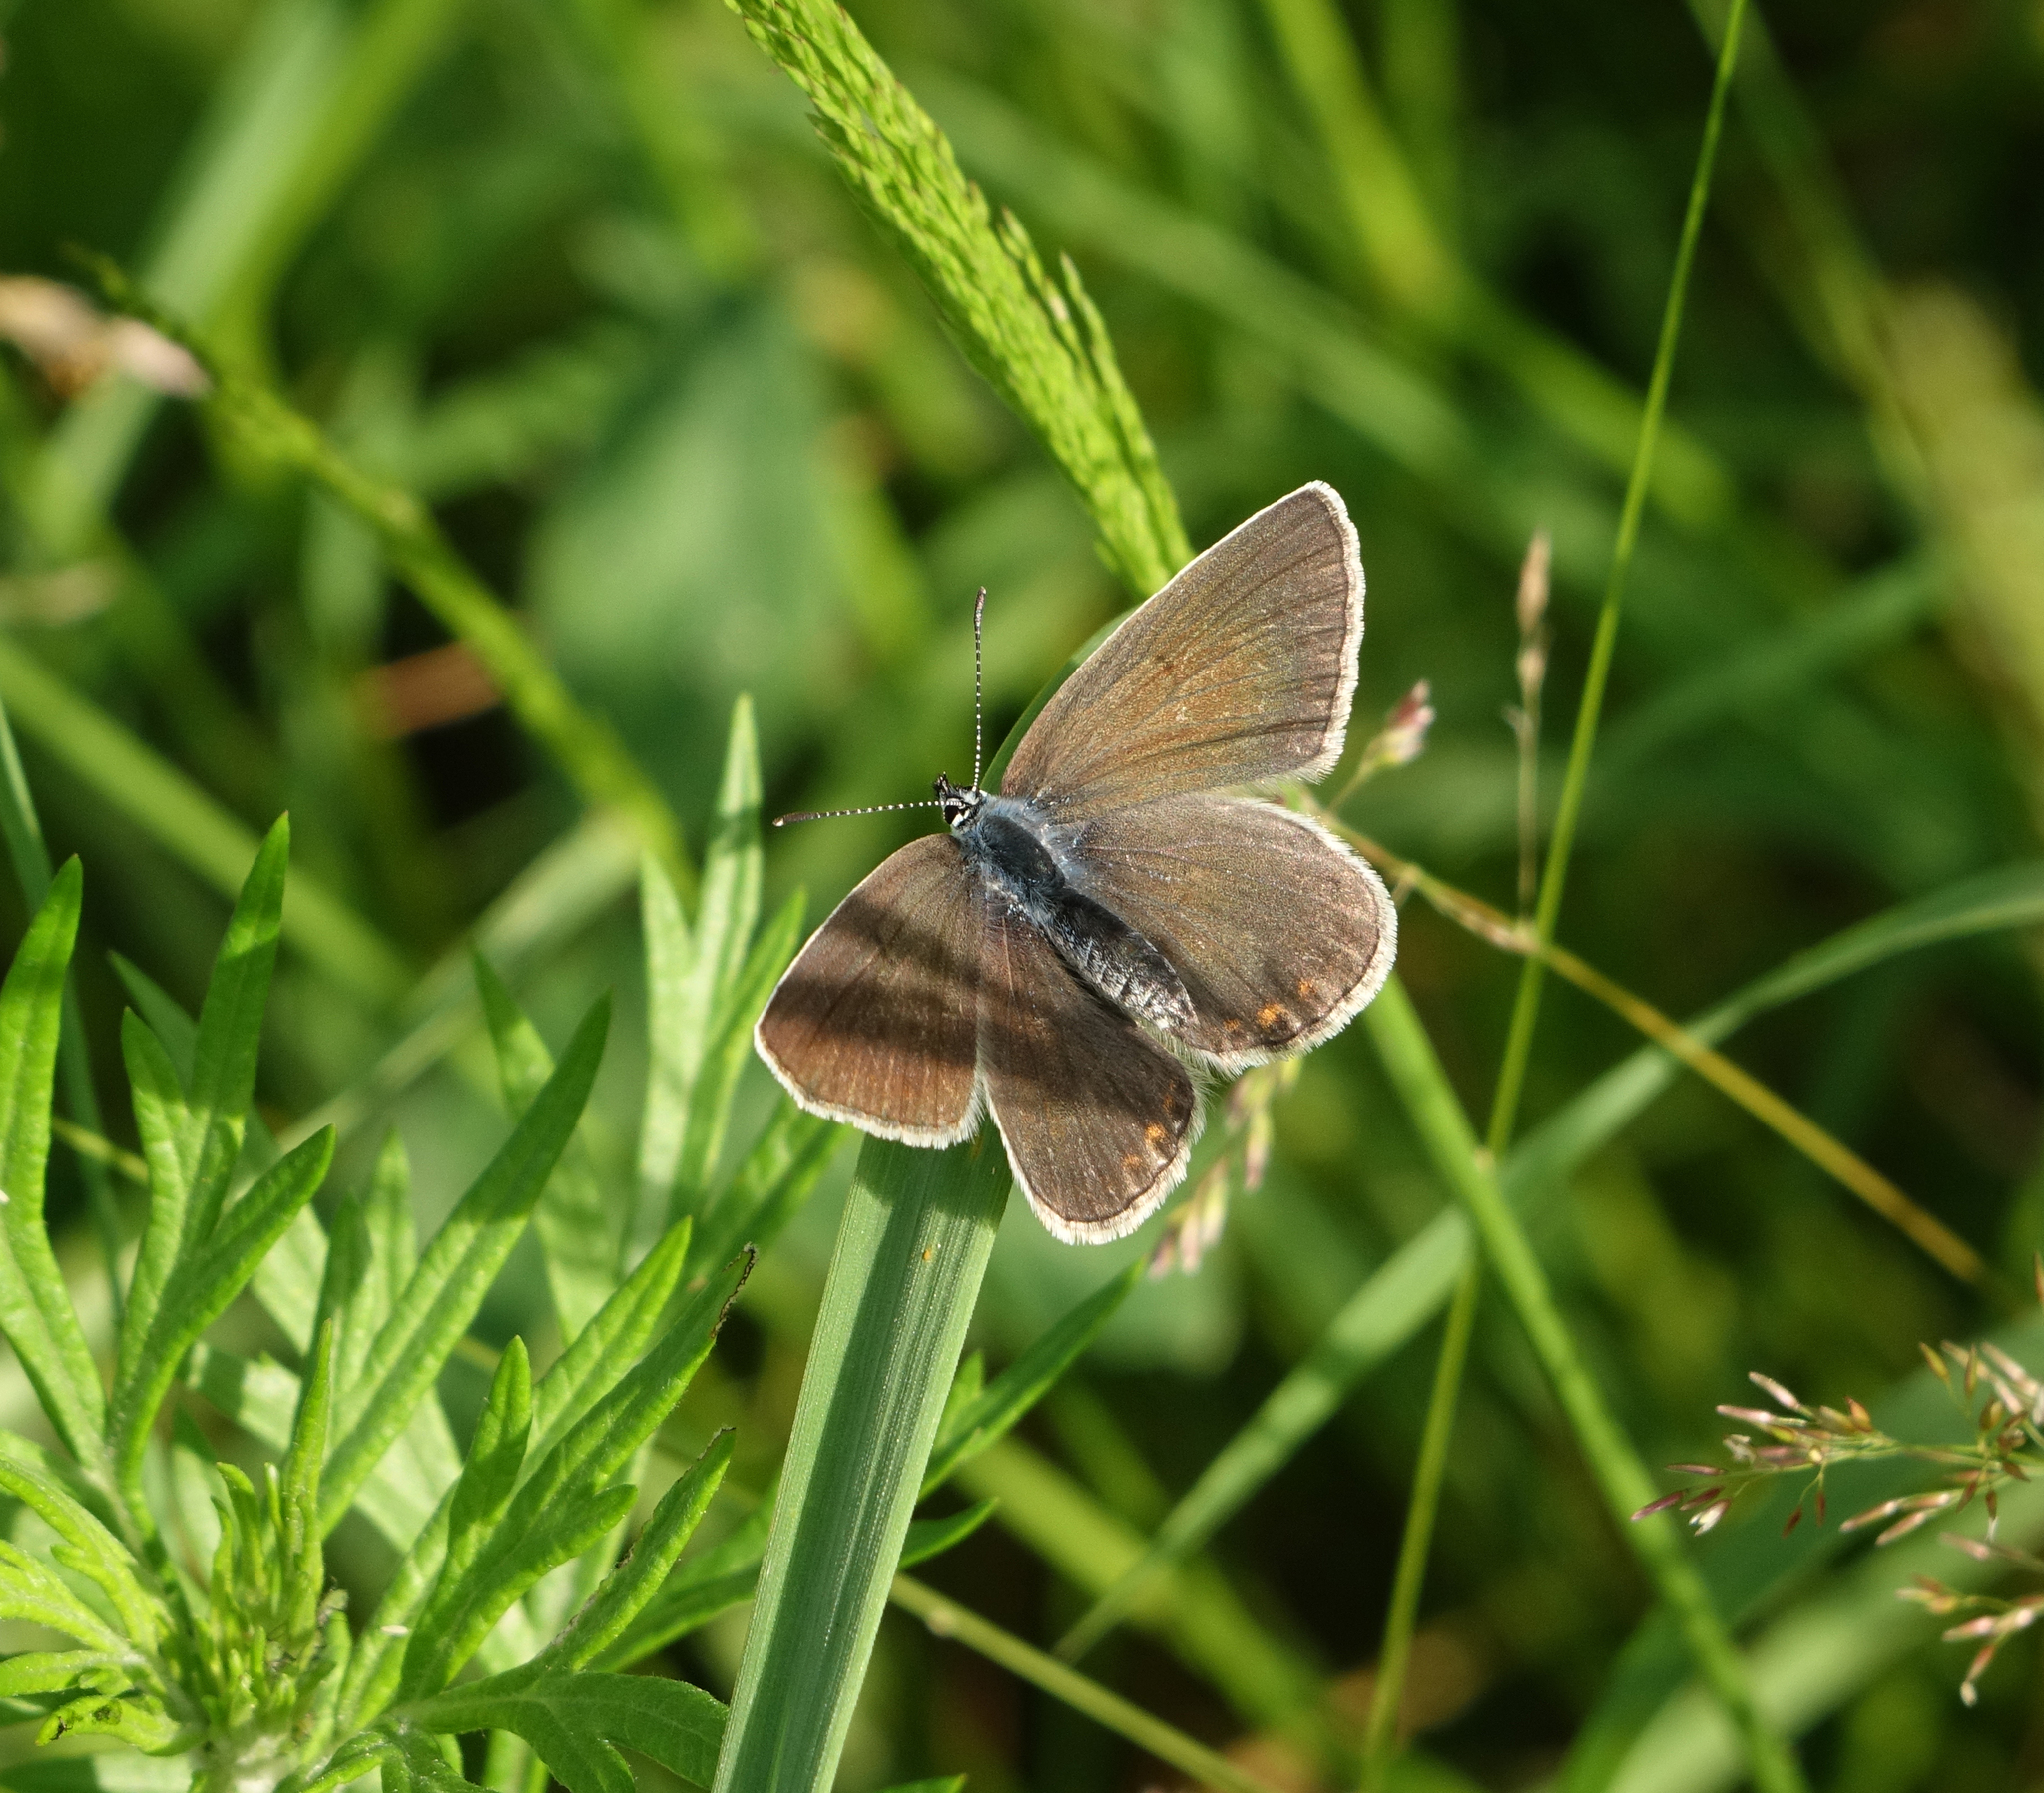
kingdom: Animalia
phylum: Arthropoda
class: Insecta
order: Lepidoptera
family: Lycaenidae
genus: Plebejus
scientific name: Plebejus amanda
